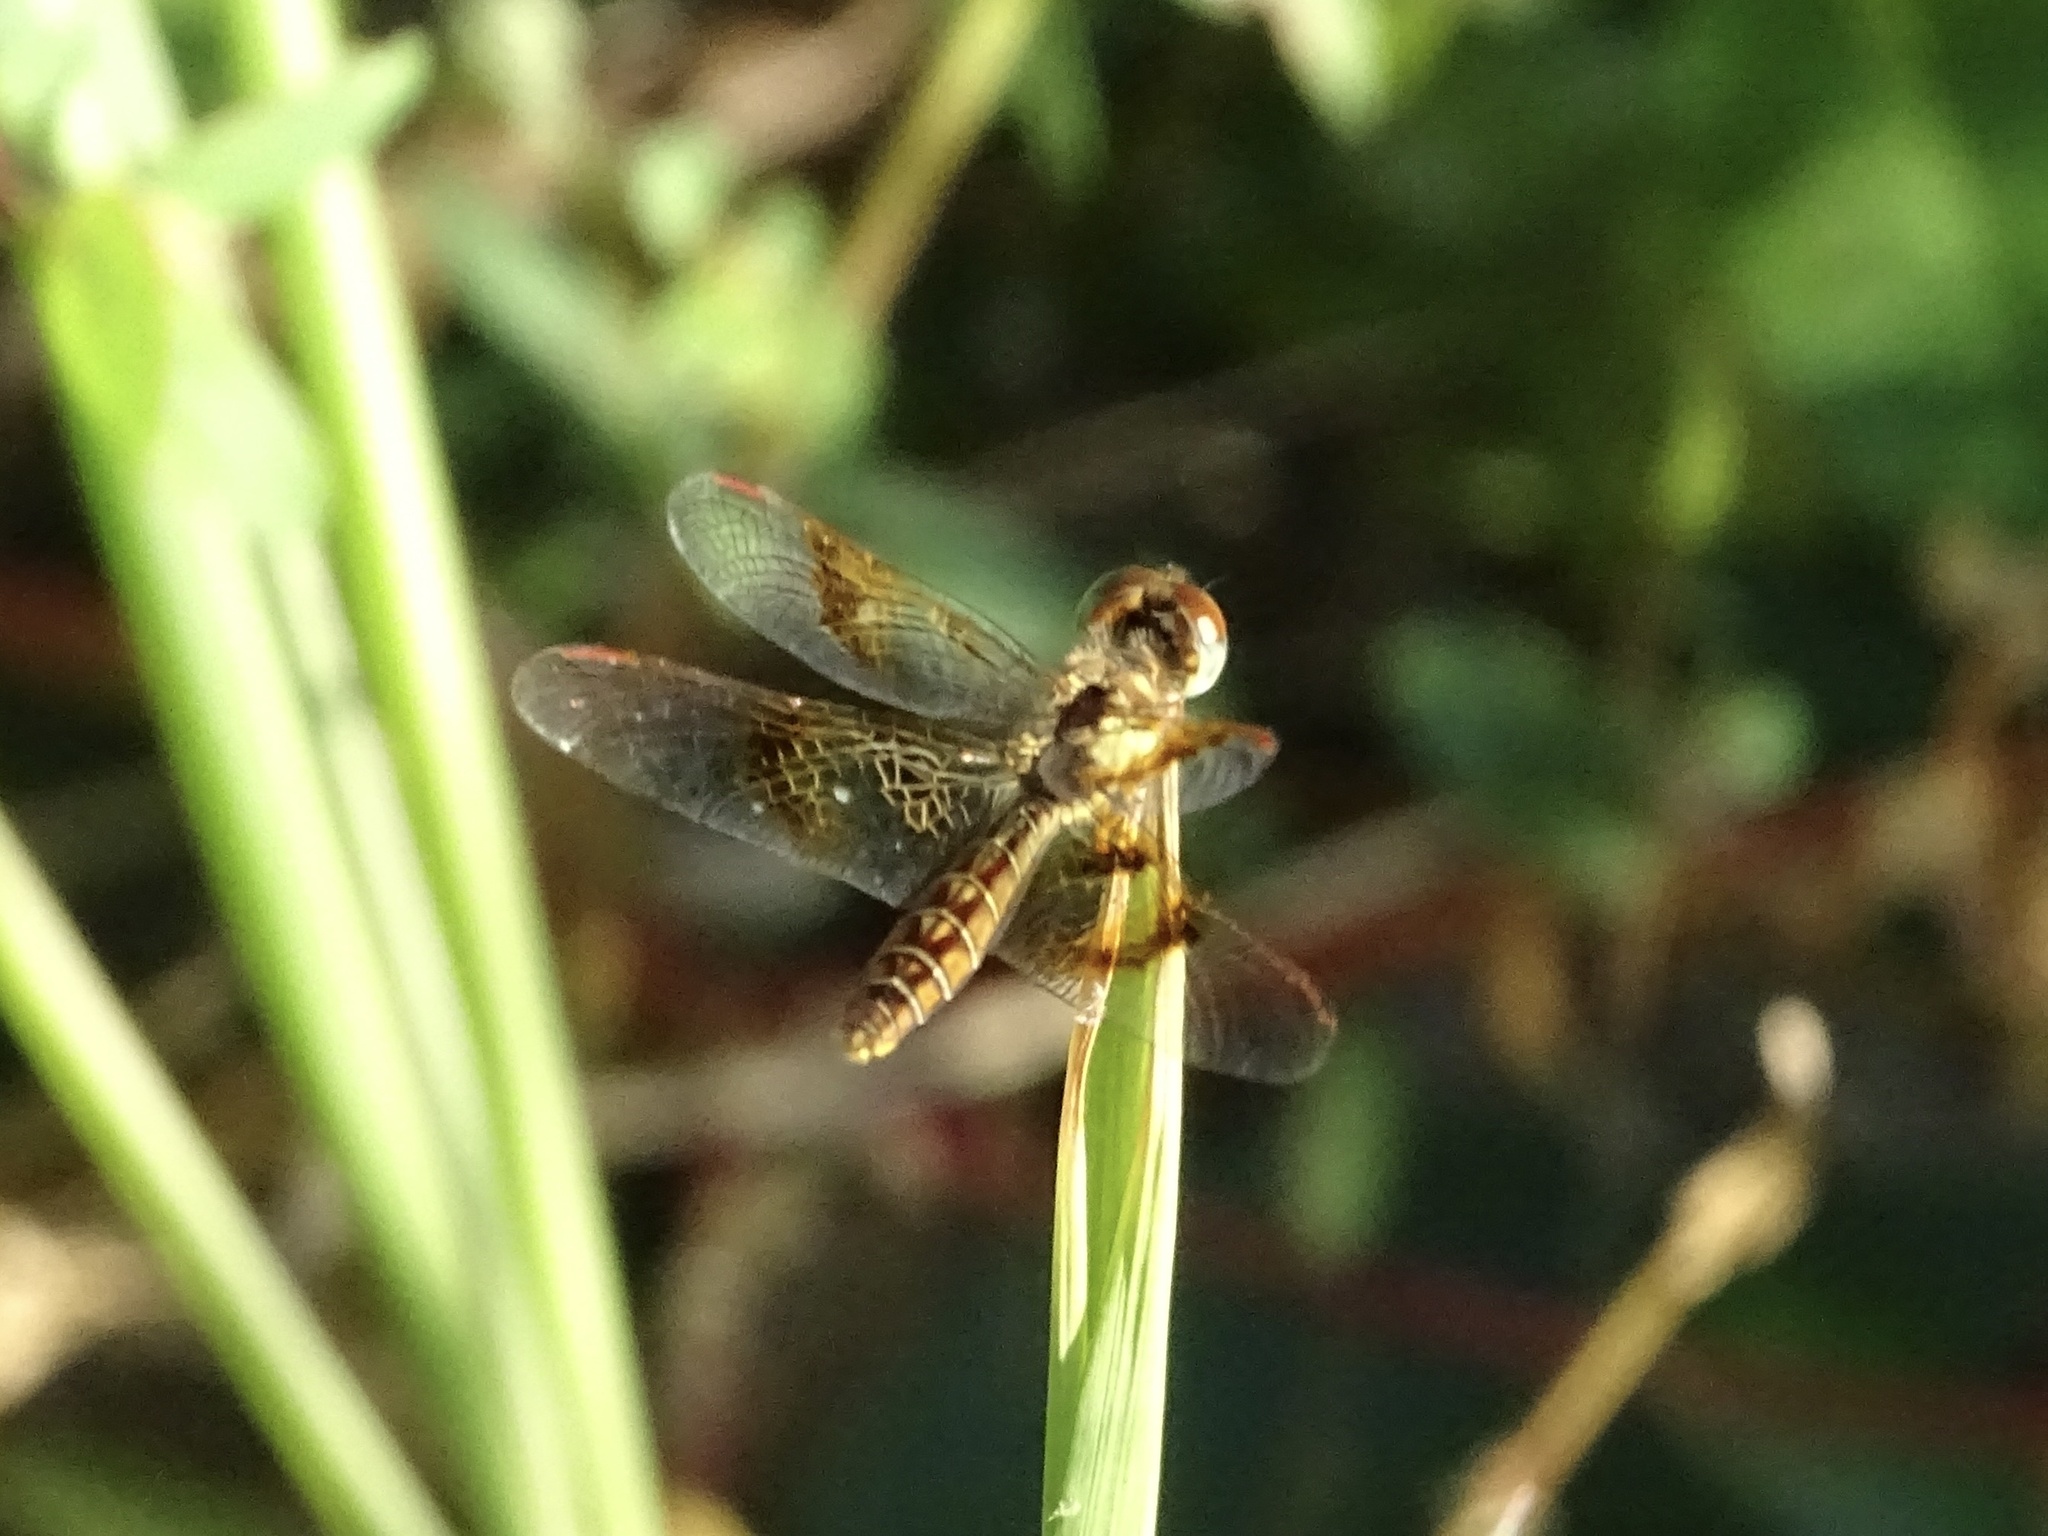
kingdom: Animalia
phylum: Arthropoda
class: Insecta
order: Odonata
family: Libellulidae
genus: Perithemis
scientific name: Perithemis tenera
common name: Eastern amberwing
